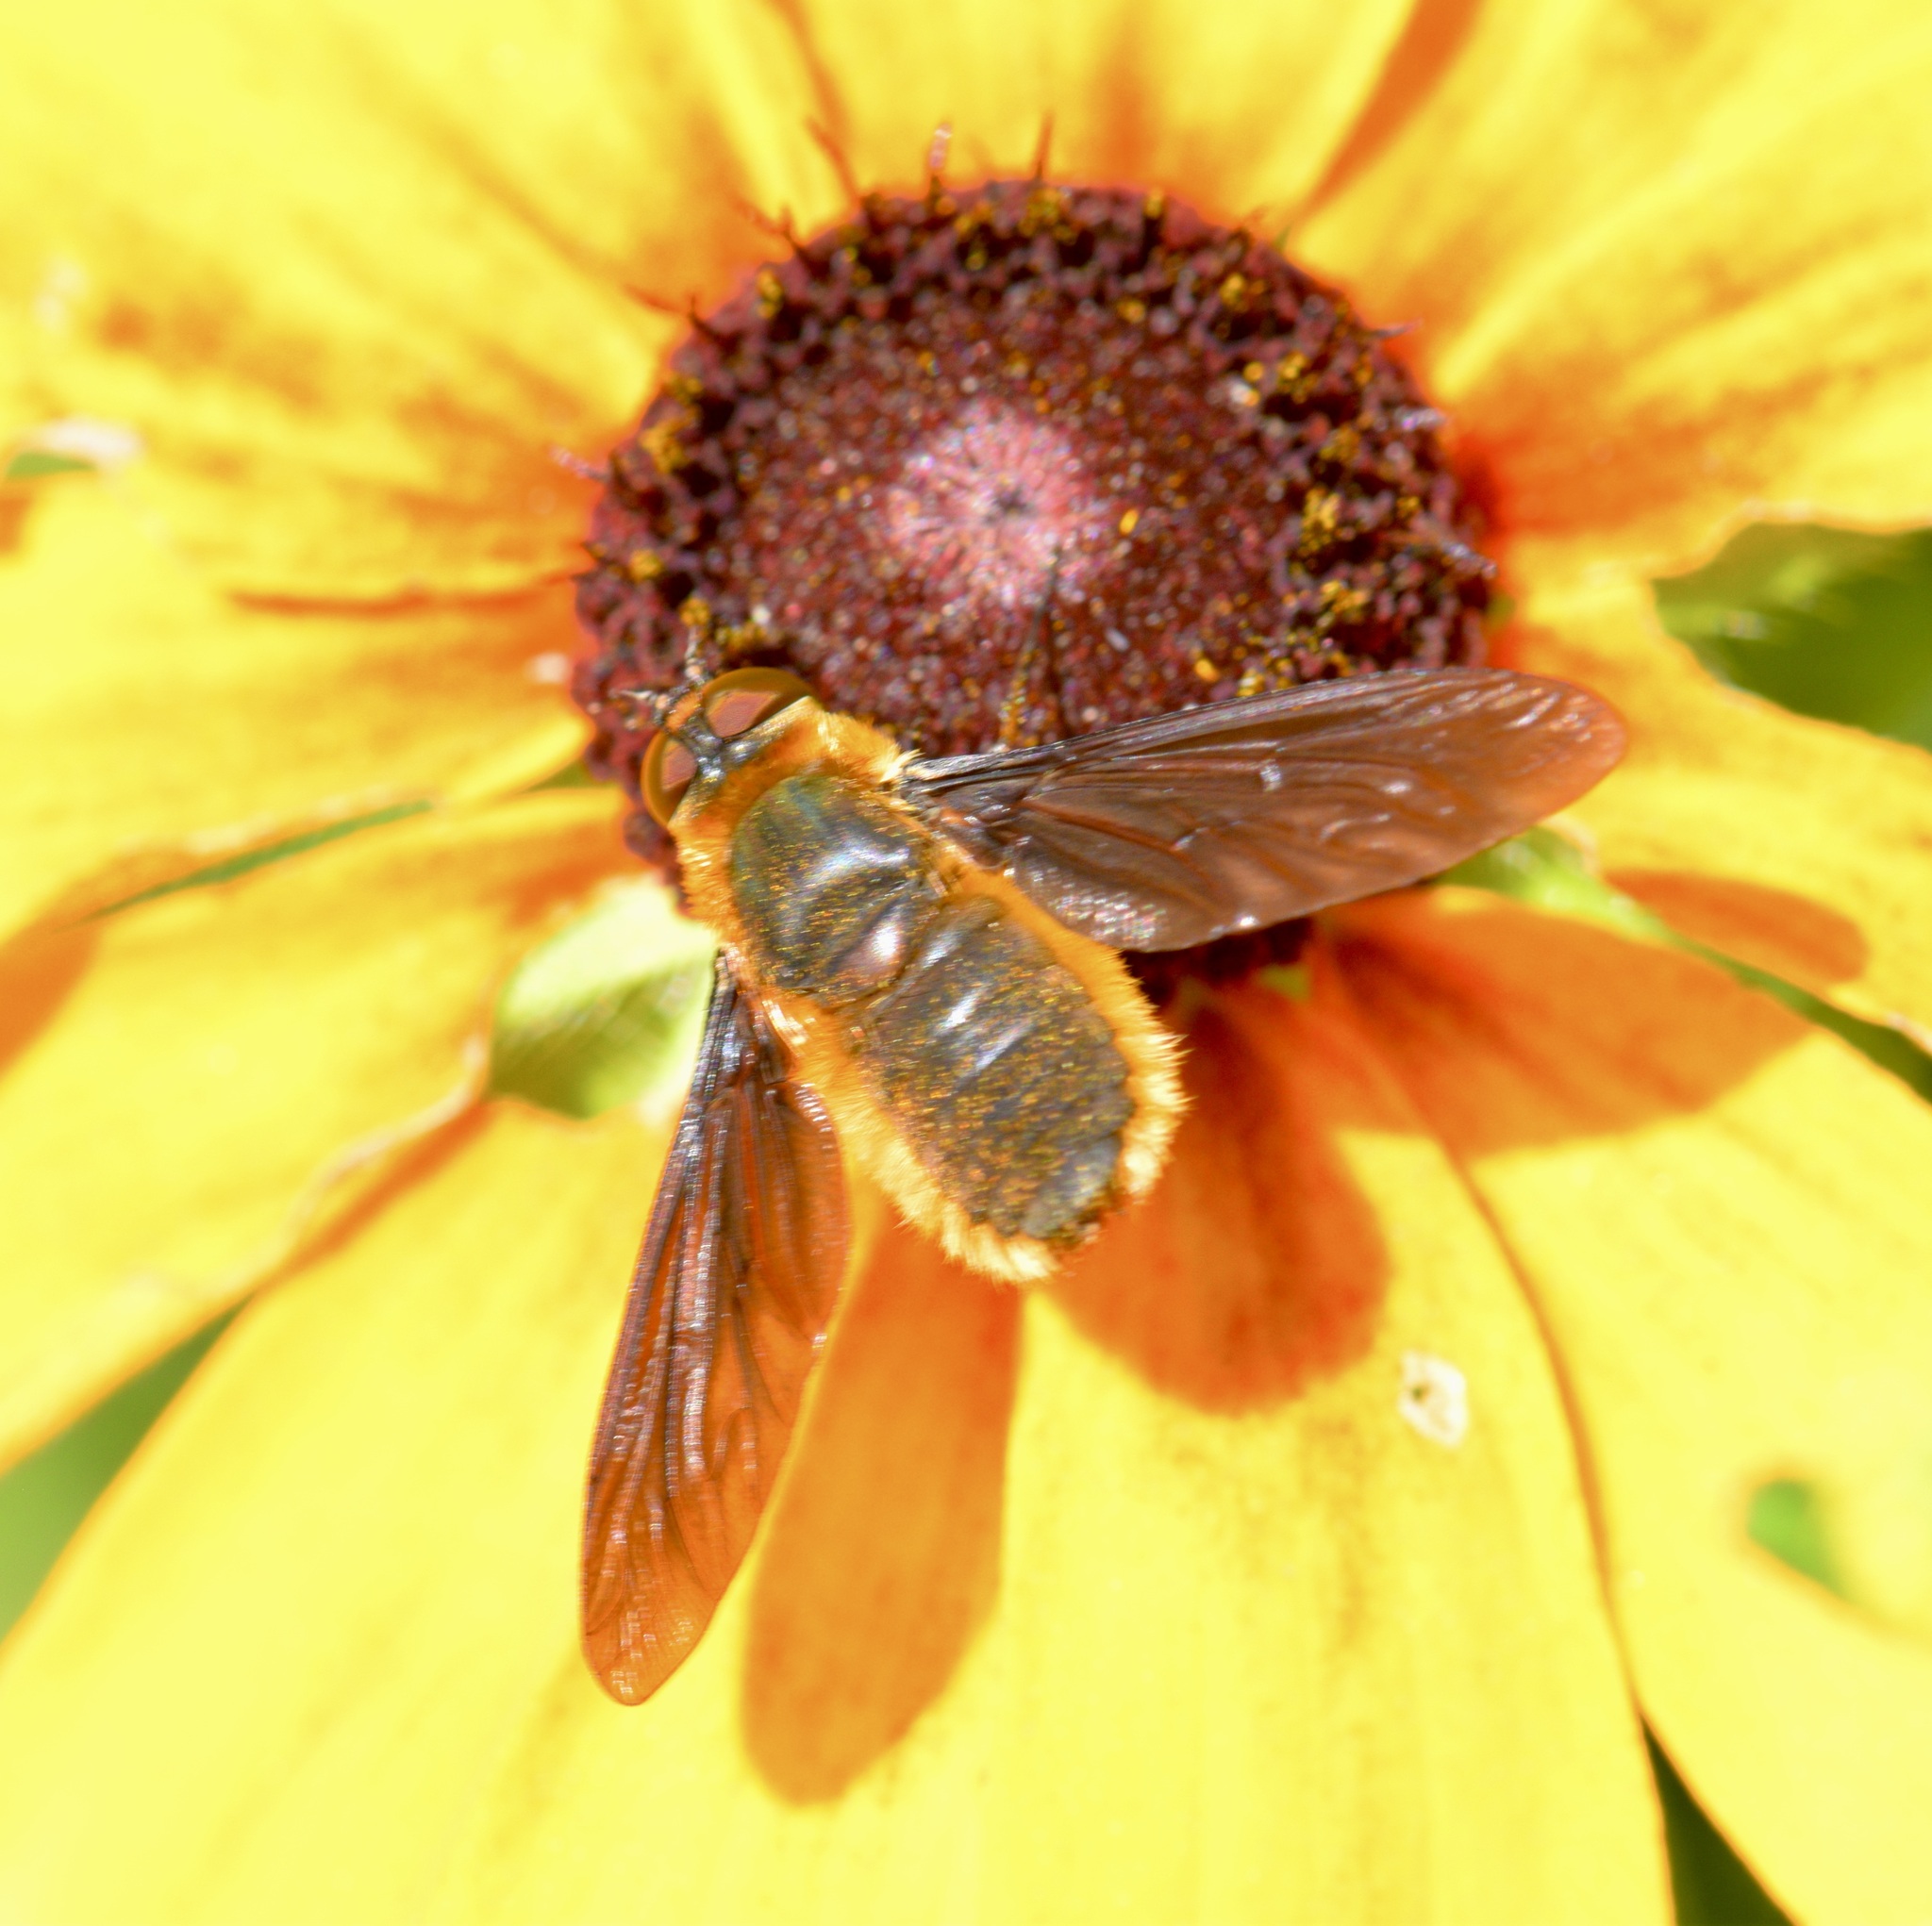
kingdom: Animalia
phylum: Arthropoda
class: Insecta
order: Diptera
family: Bombyliidae
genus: Poecilanthrax
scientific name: Poecilanthrax tegminipennis
